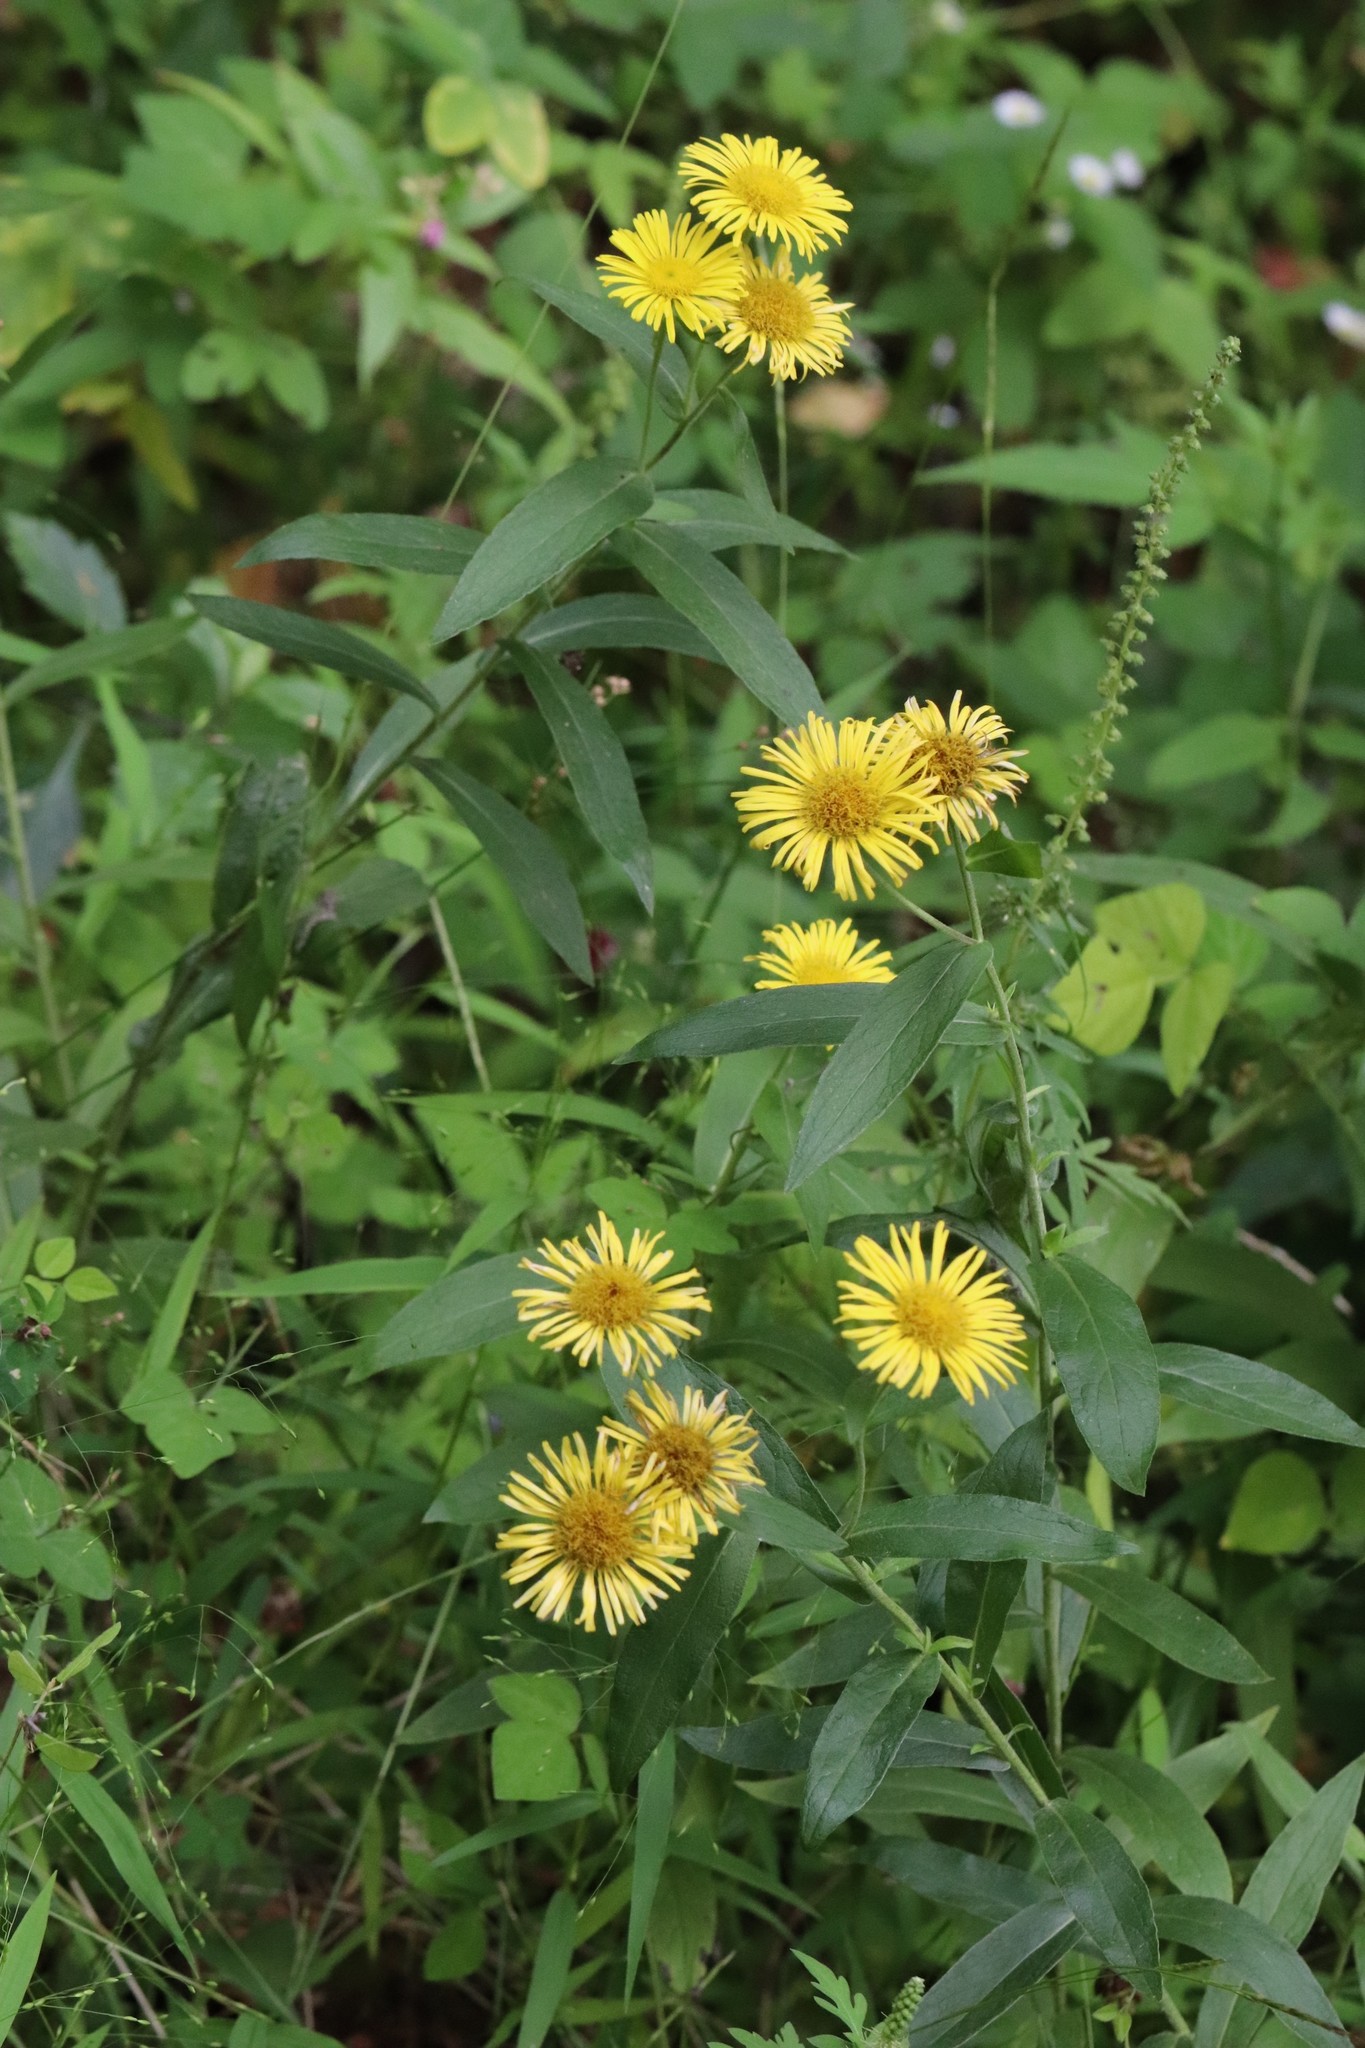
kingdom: Plantae
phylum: Tracheophyta
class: Magnoliopsida
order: Asterales
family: Asteraceae
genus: Inula
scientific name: Inula japonica
